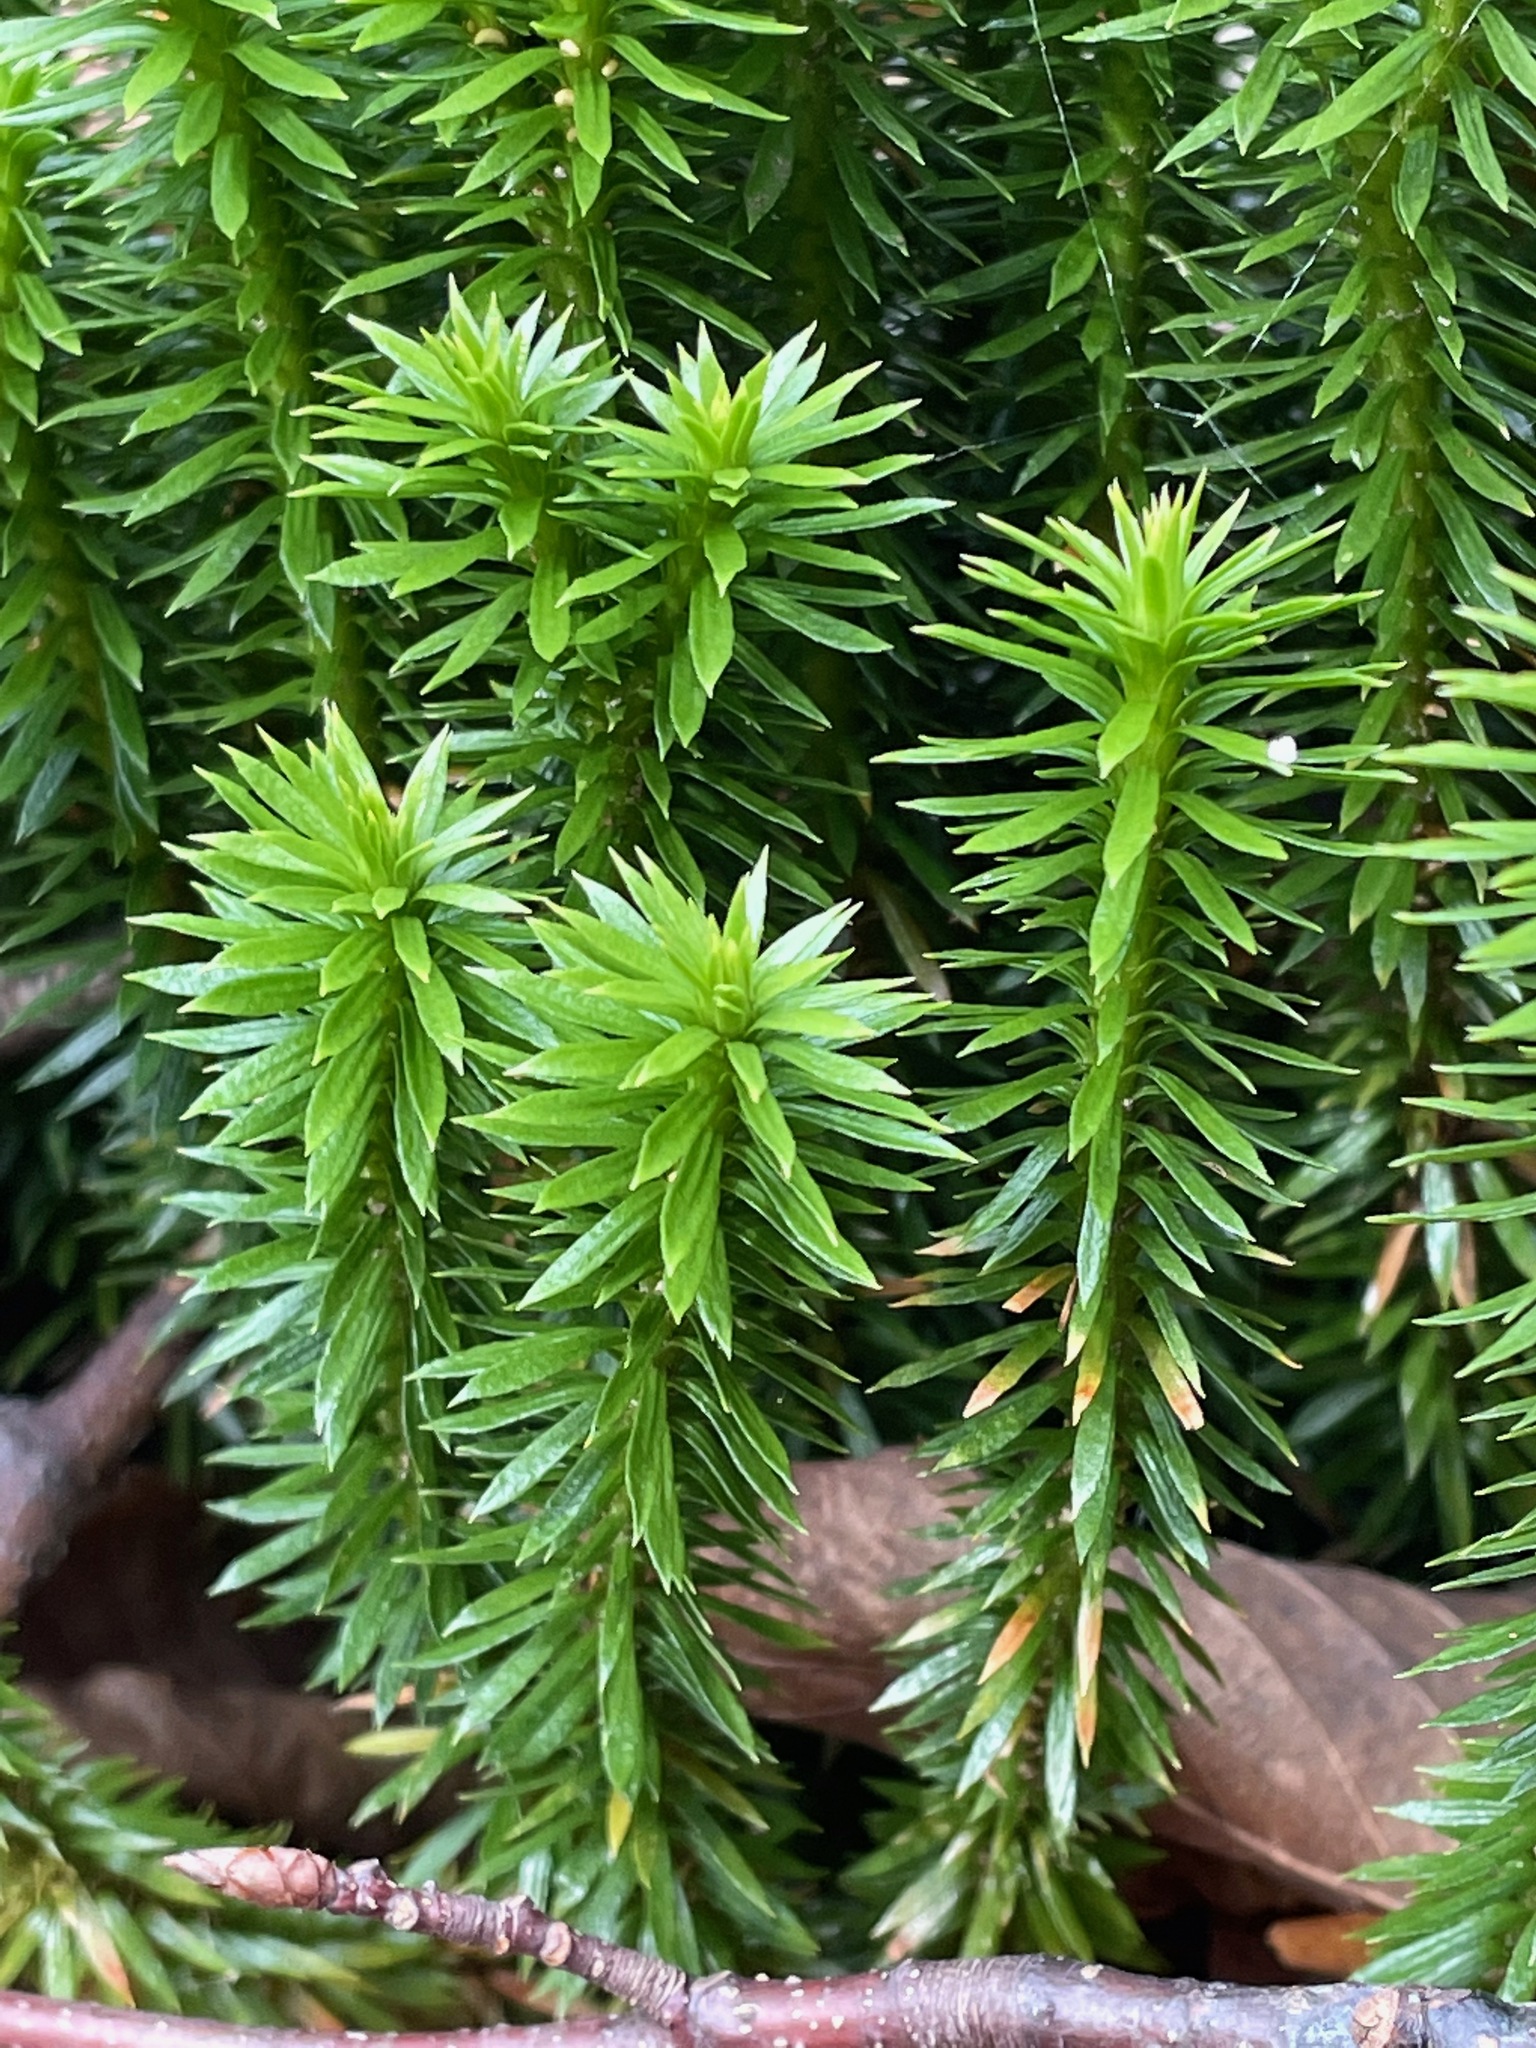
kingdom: Plantae
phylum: Tracheophyta
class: Lycopodiopsida
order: Lycopodiales
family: Lycopodiaceae
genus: Huperzia
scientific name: Huperzia lucidula
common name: Shining clubmoss
